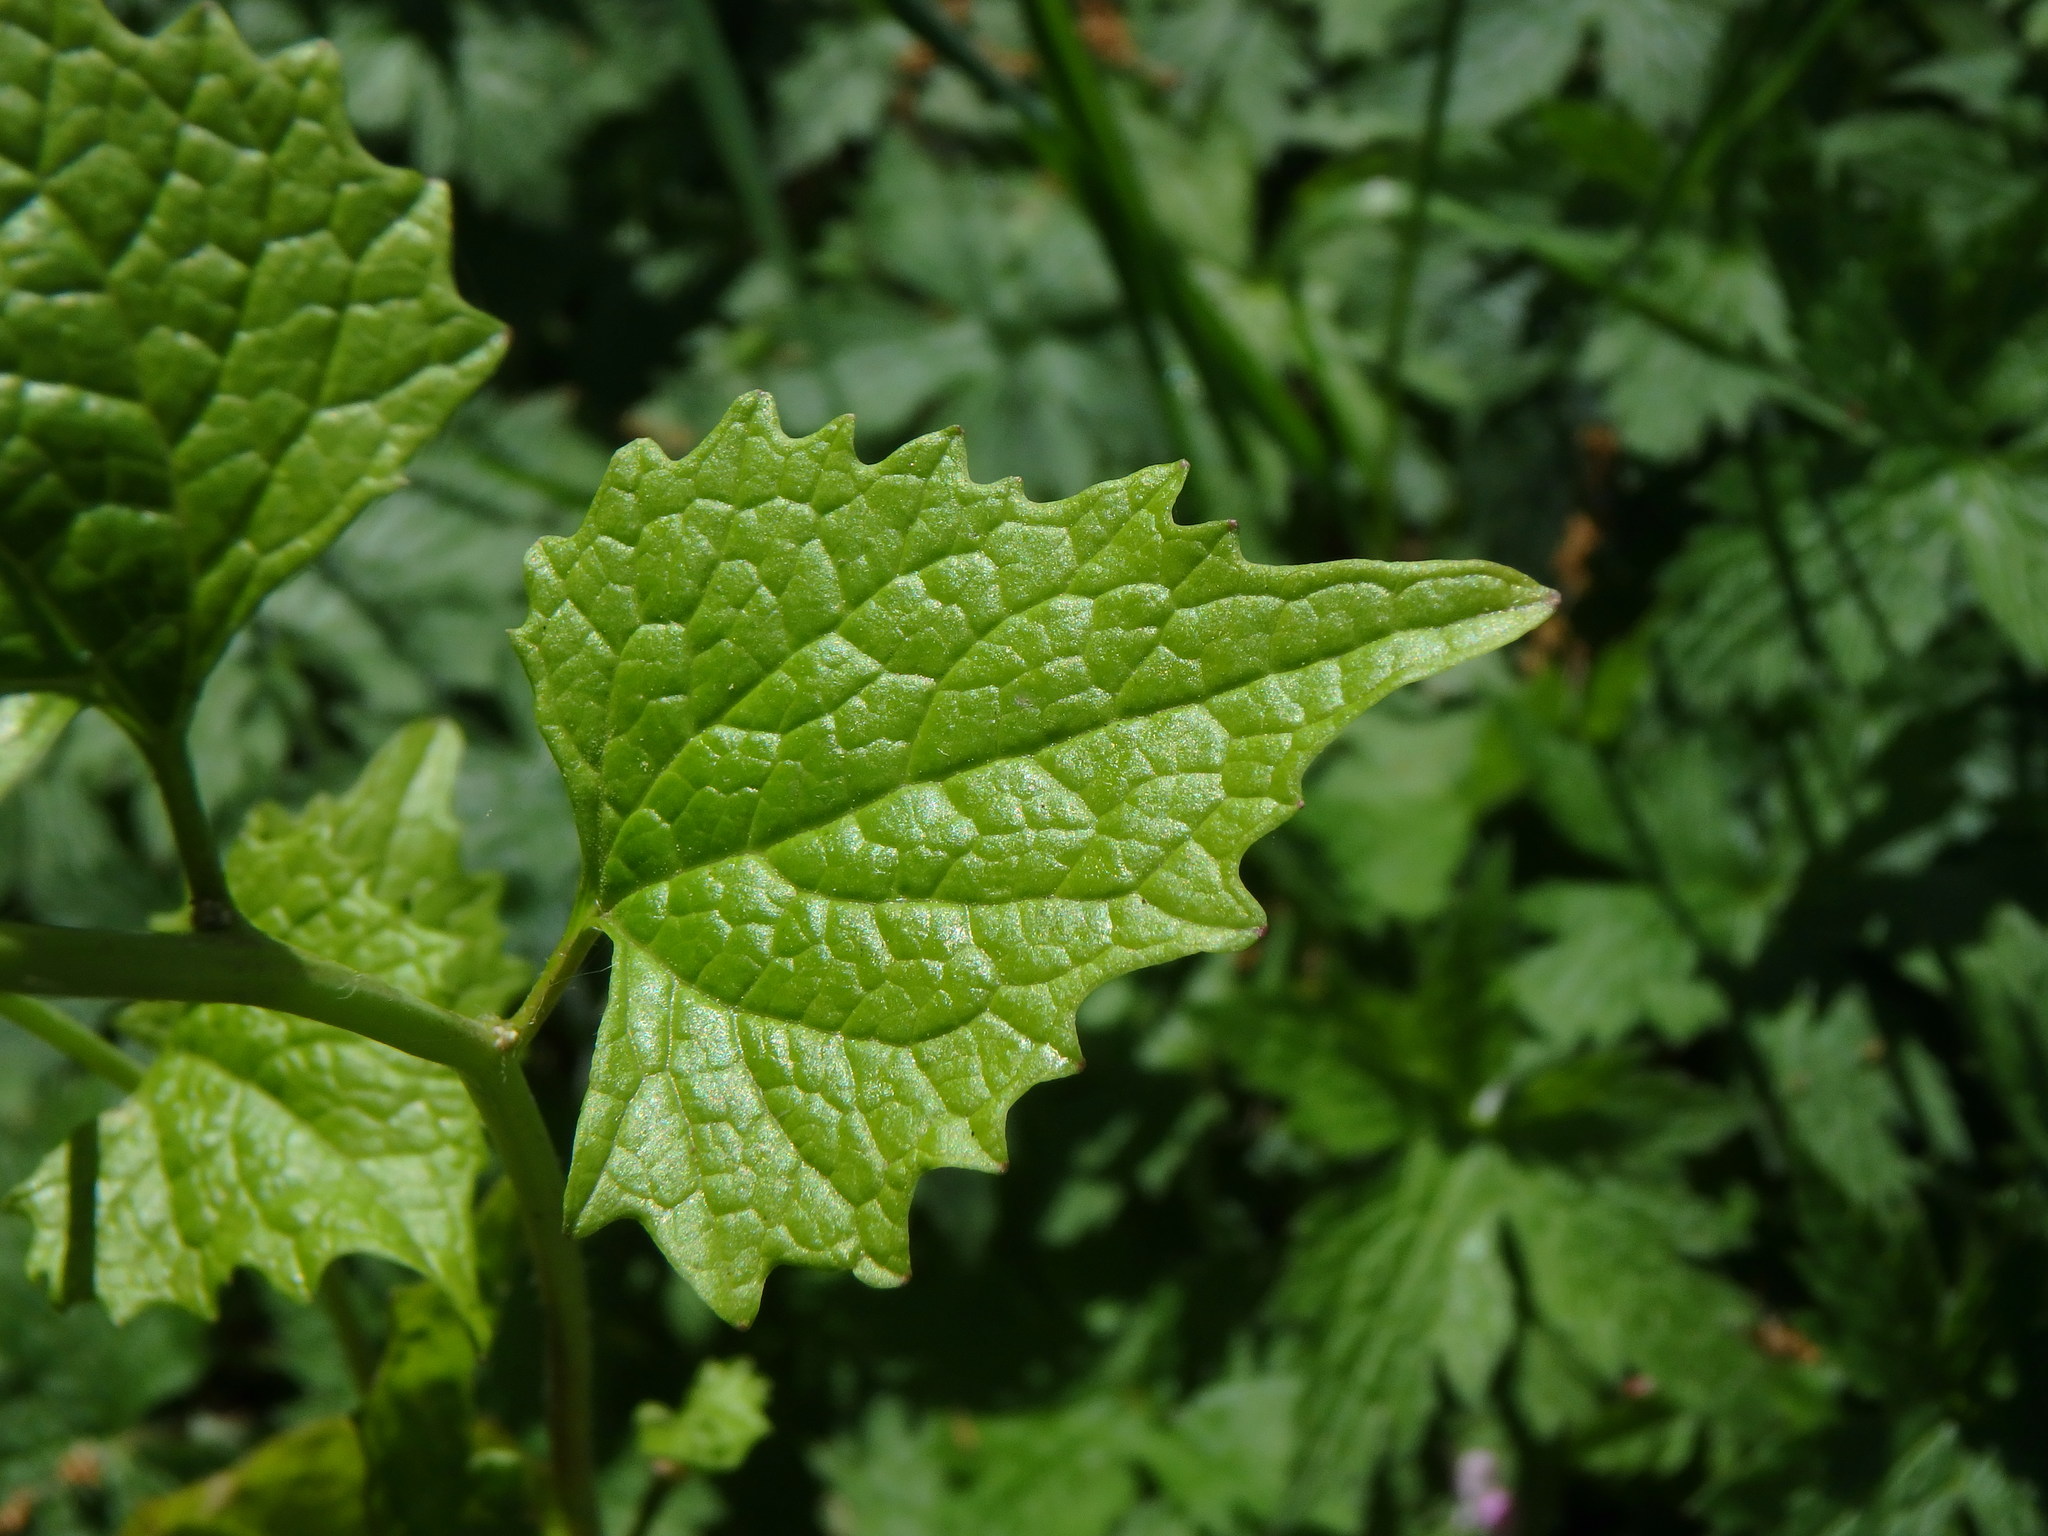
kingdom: Plantae
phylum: Tracheophyta
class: Magnoliopsida
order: Brassicales
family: Brassicaceae
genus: Alliaria
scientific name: Alliaria petiolata
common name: Garlic mustard
